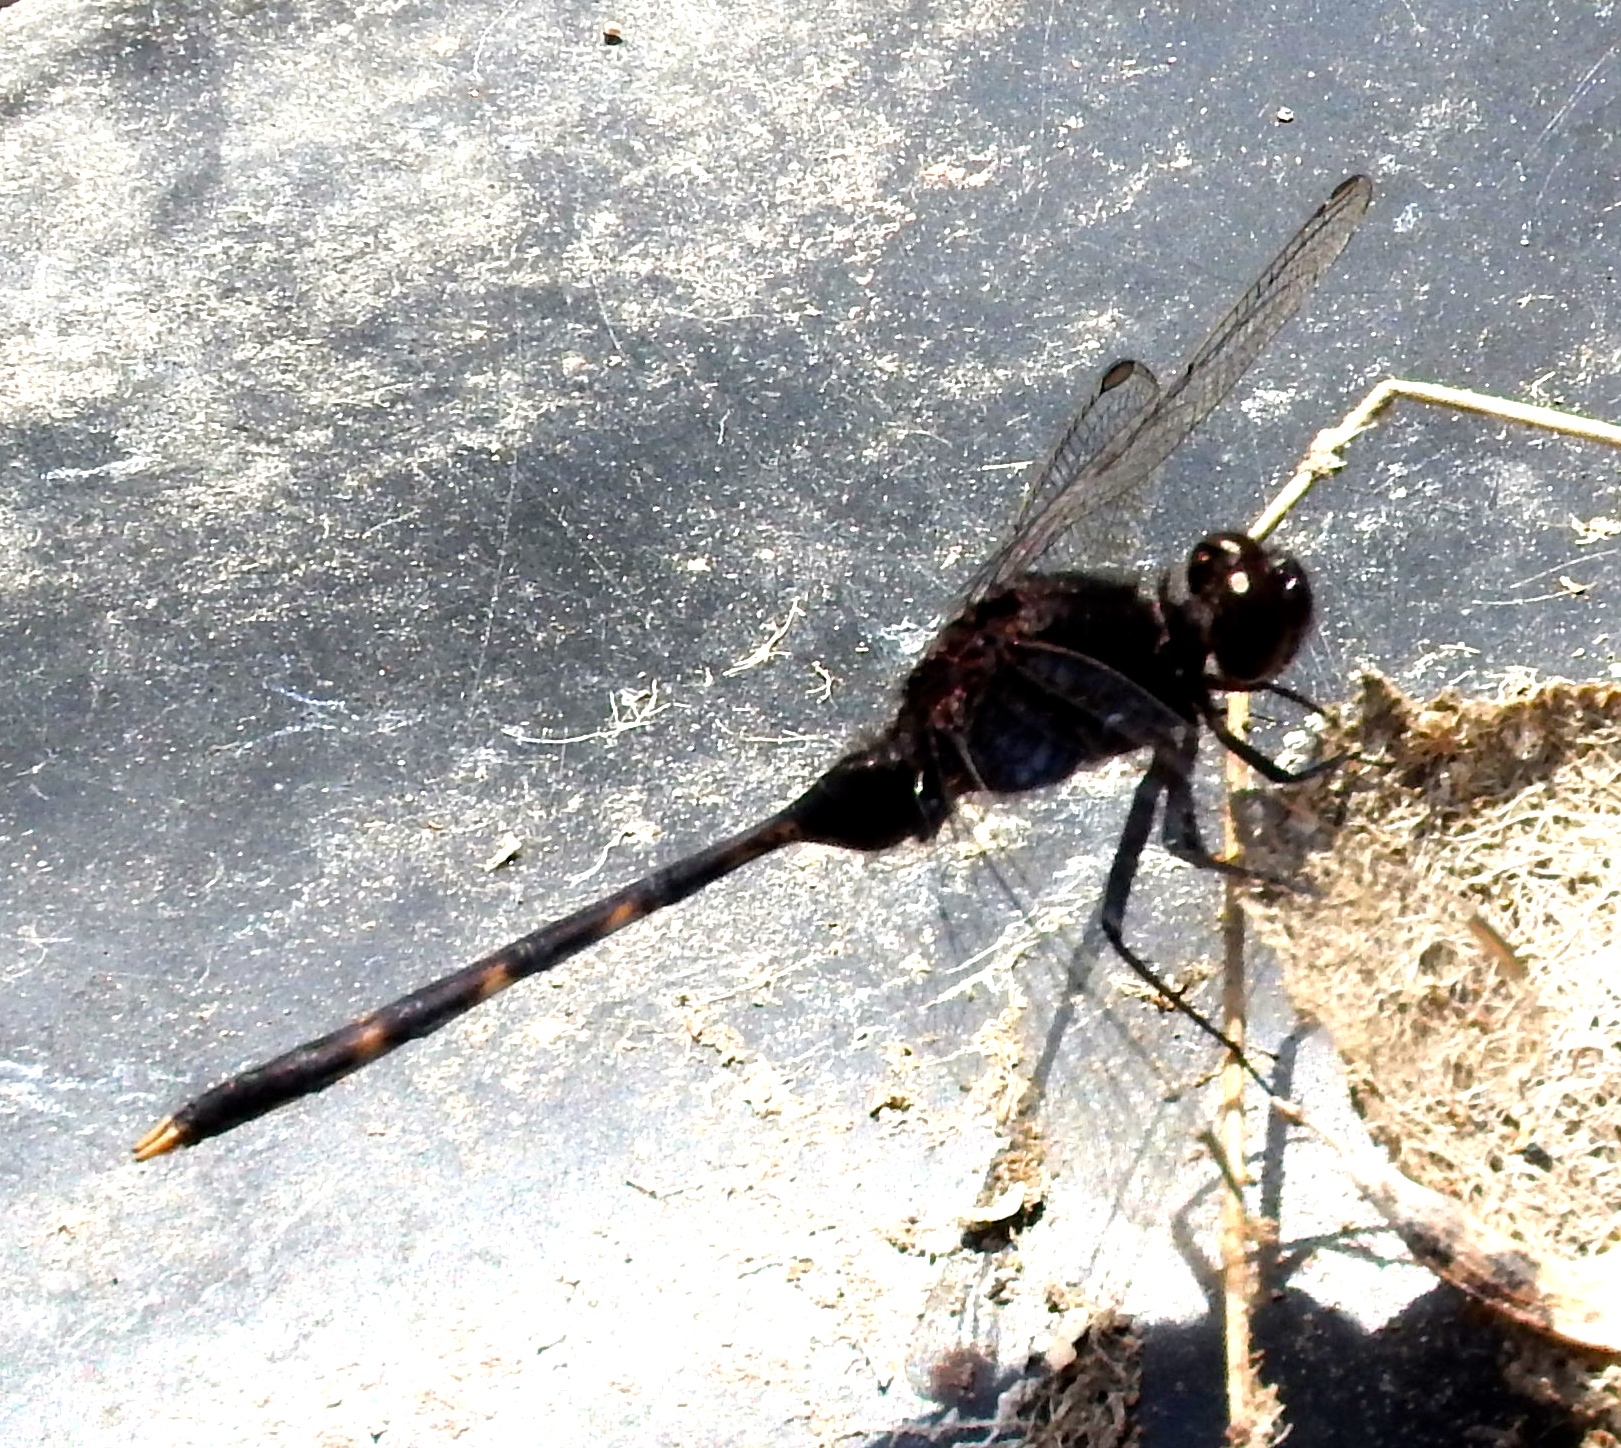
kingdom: Animalia
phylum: Arthropoda
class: Insecta
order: Odonata
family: Libellulidae
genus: Erythemis
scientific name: Erythemis plebeja
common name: Pin-tailed pondhawk
